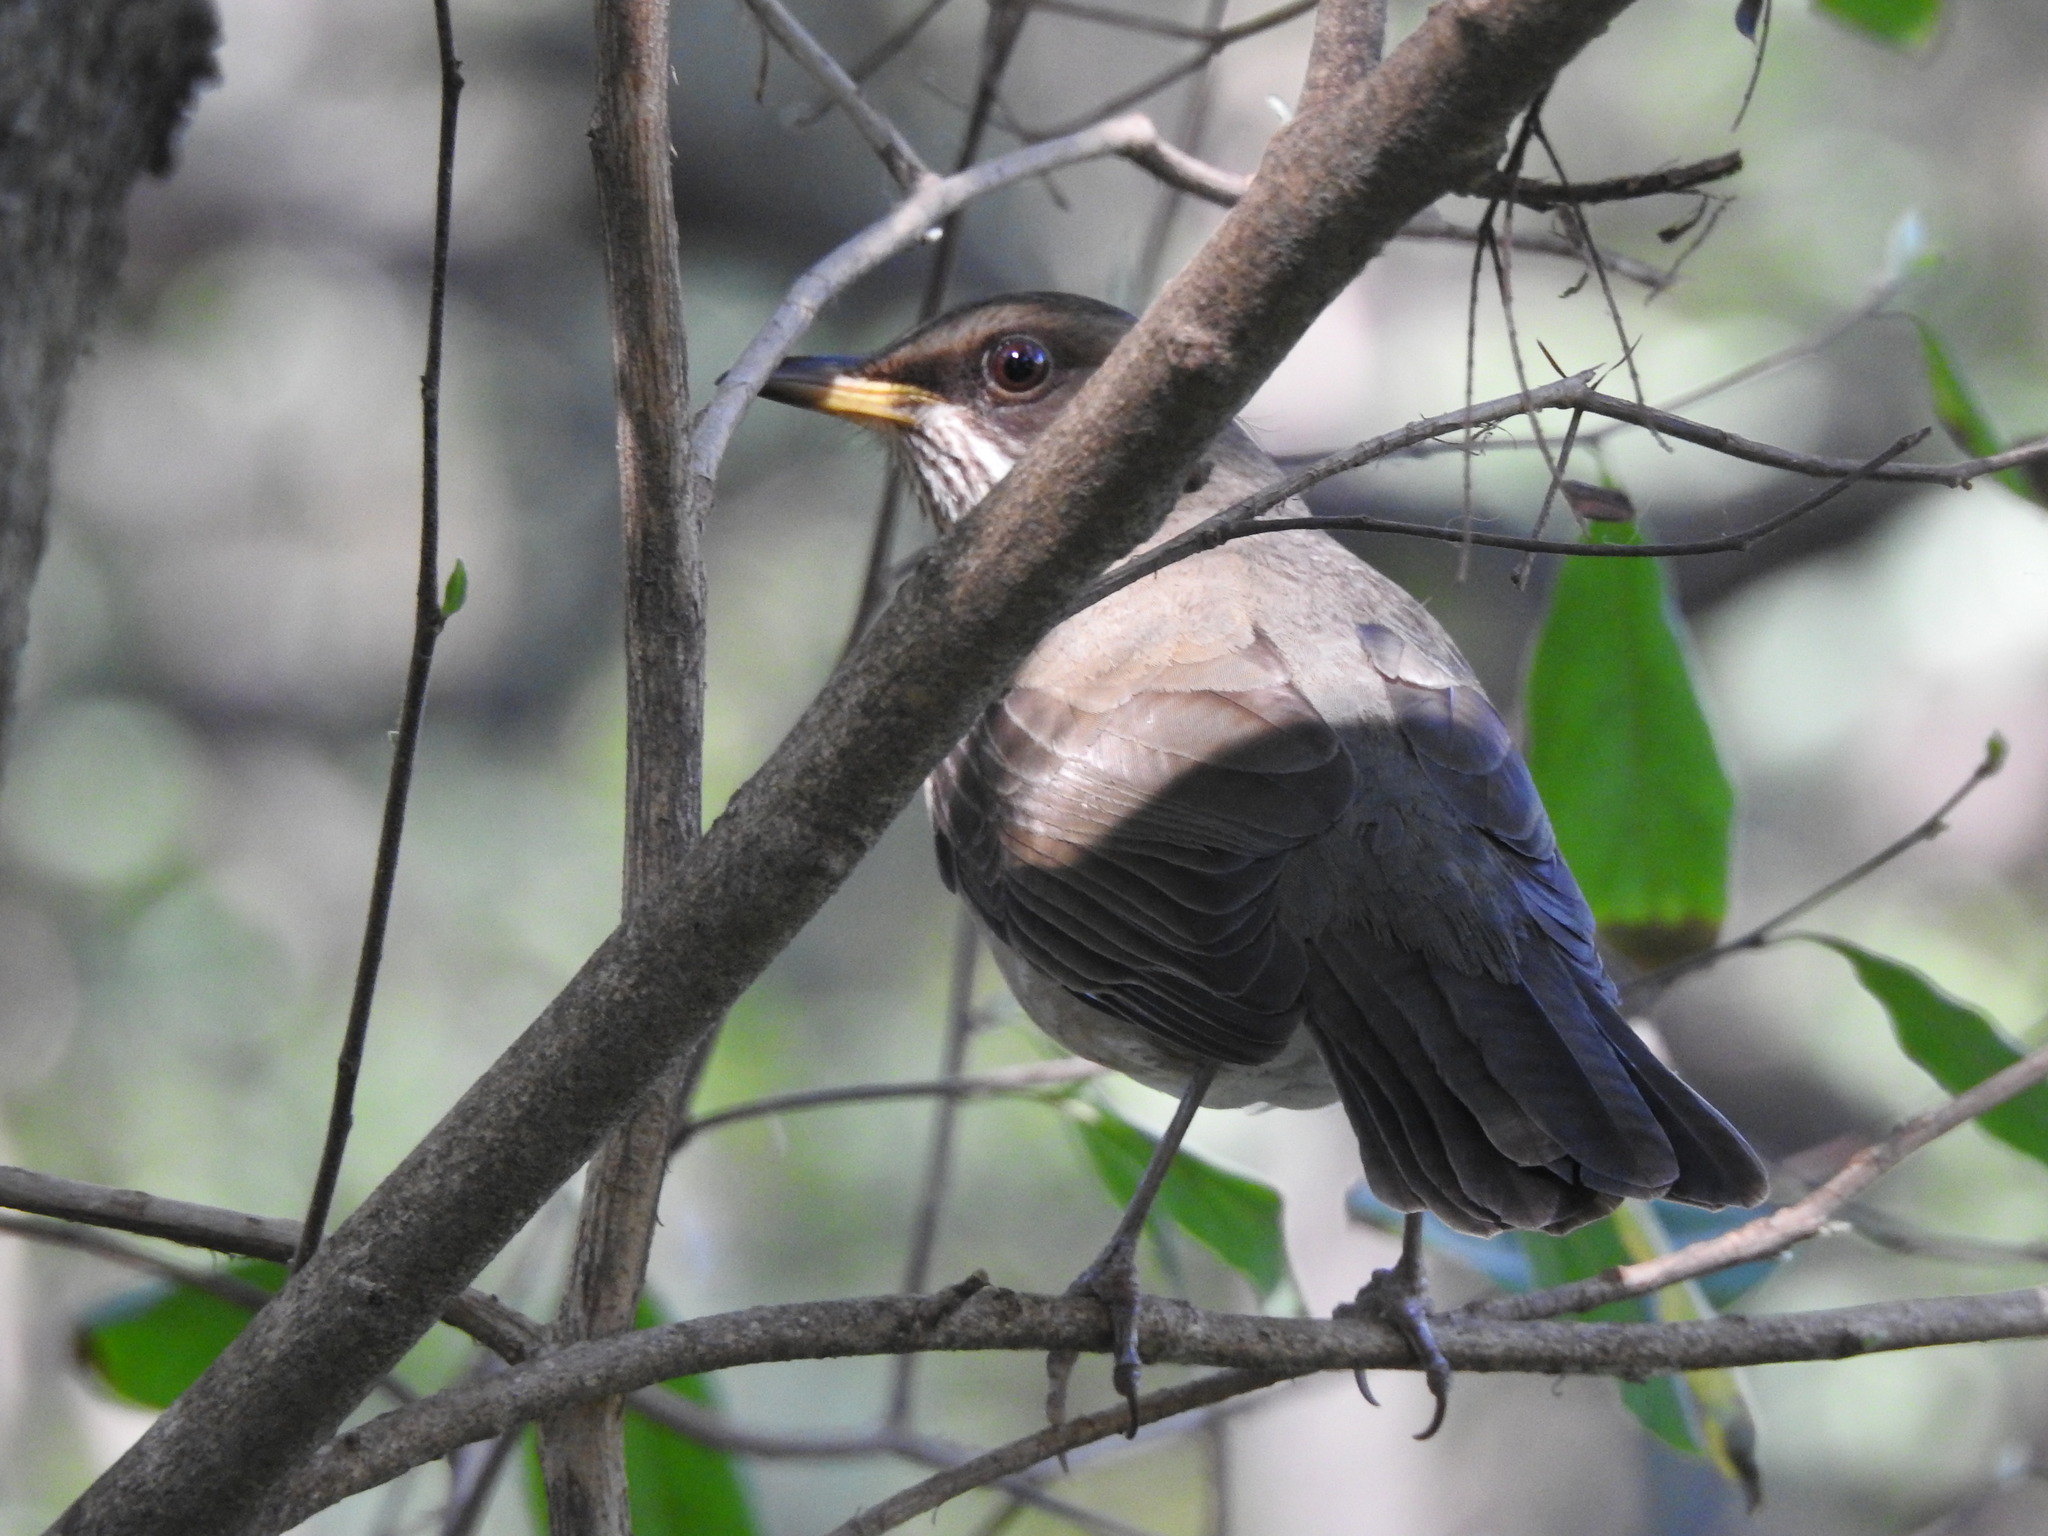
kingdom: Animalia
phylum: Chordata
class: Aves
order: Passeriformes
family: Turdidae
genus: Turdus
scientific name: Turdus amaurochalinus
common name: Creamy-bellied thrush
